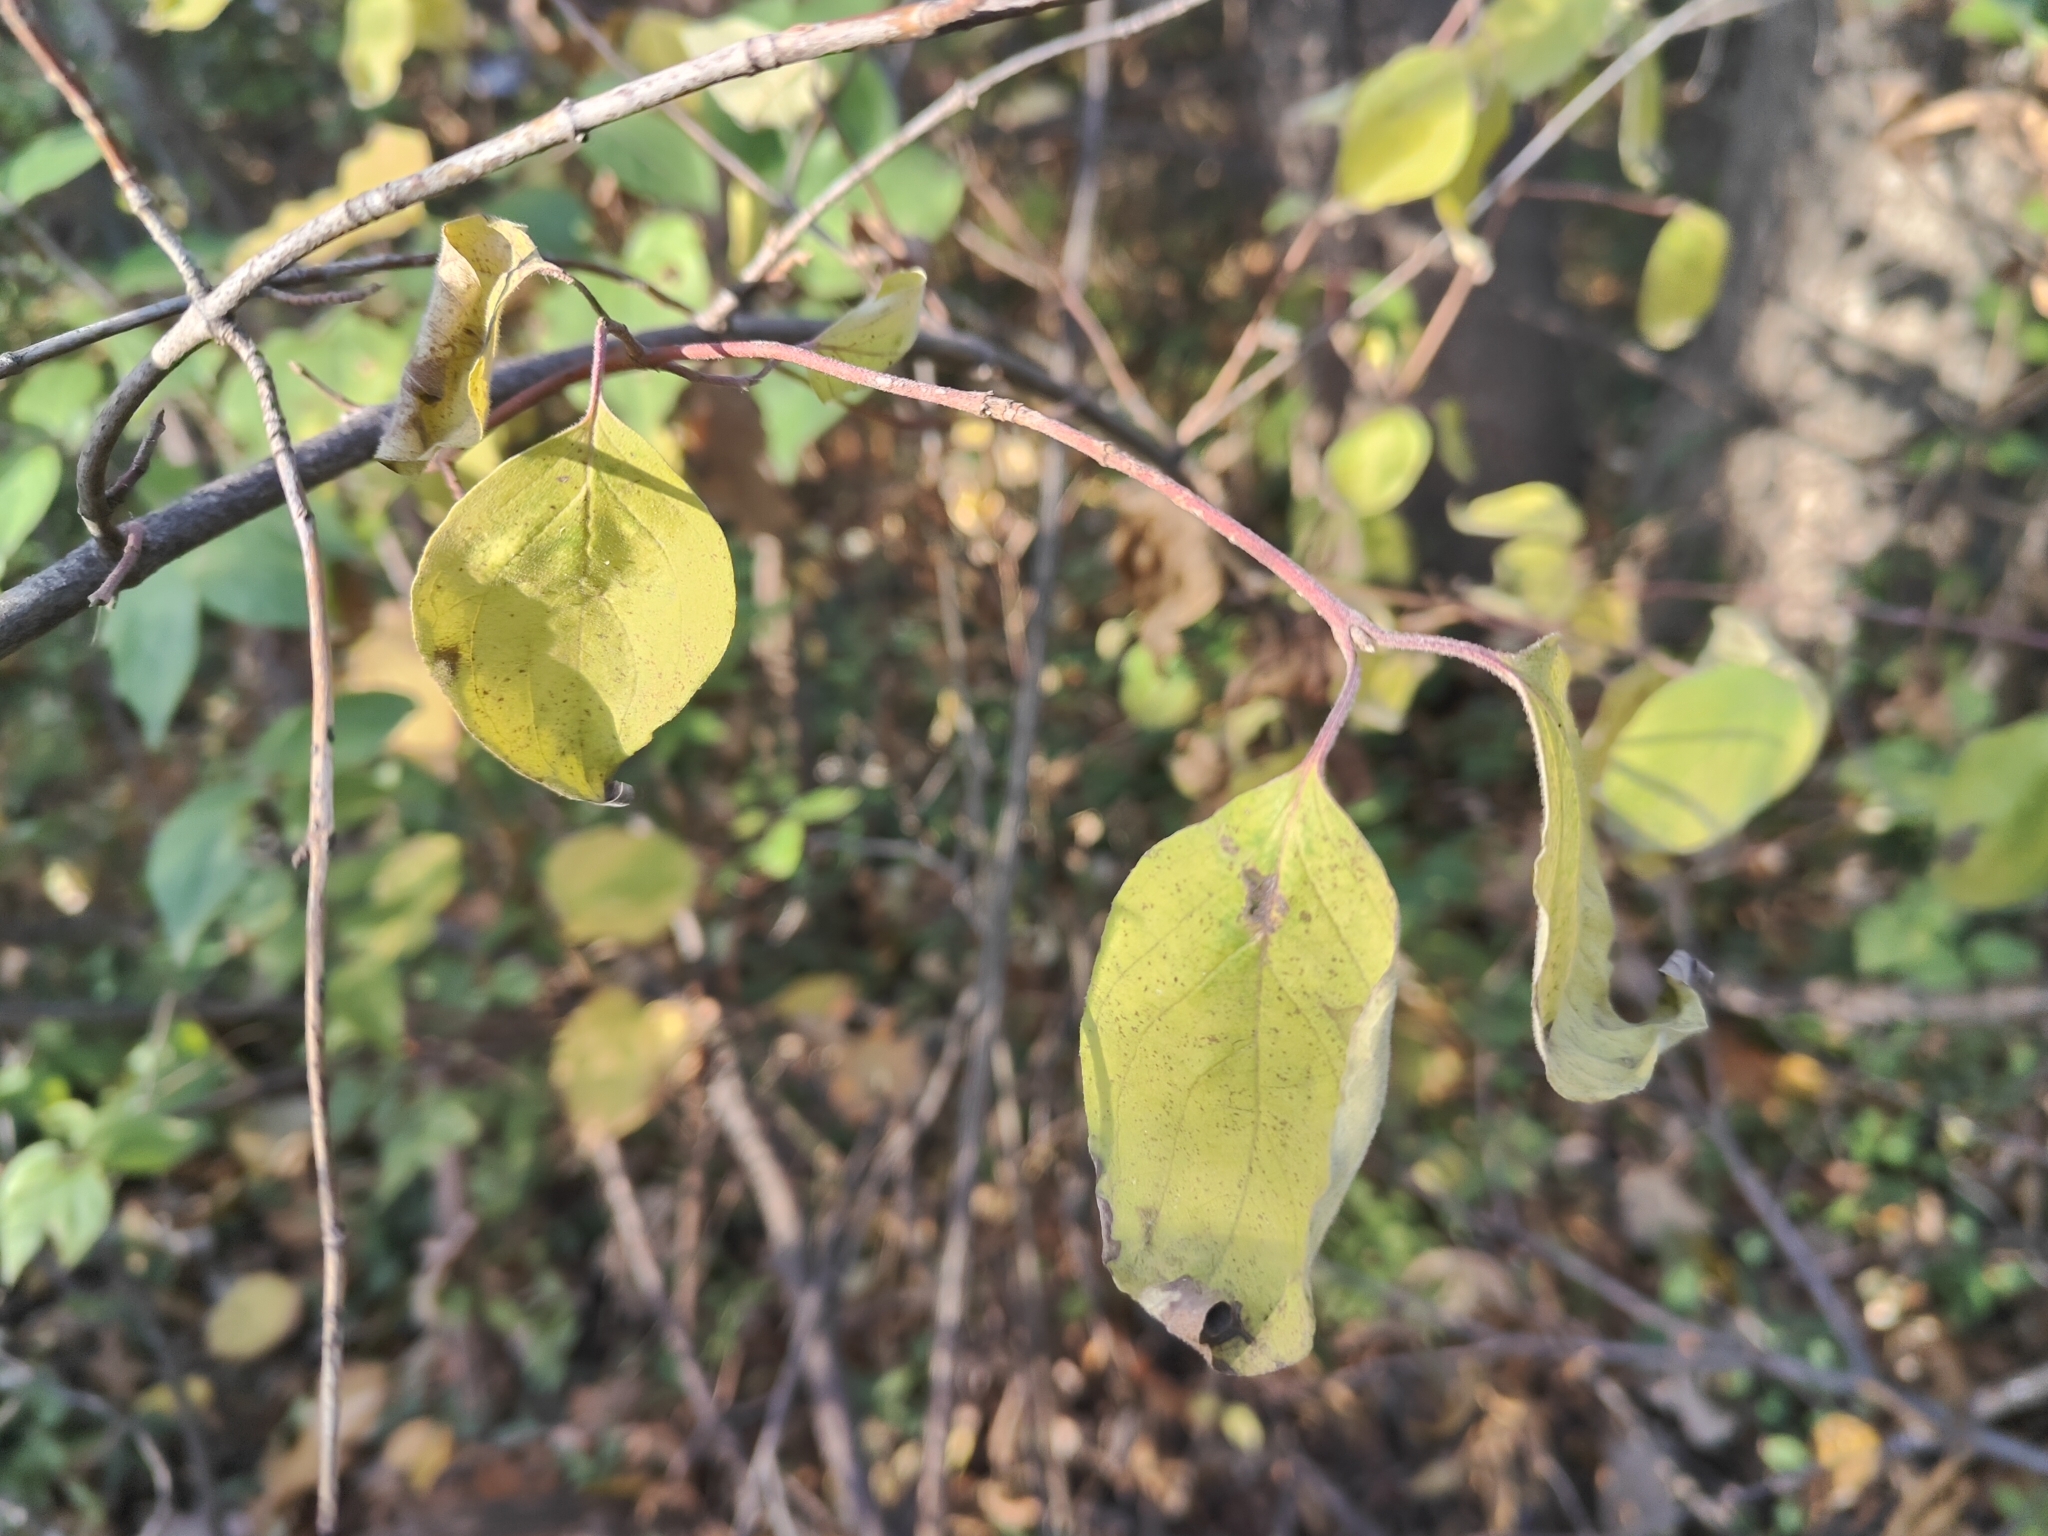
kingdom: Plantae
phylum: Tracheophyta
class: Magnoliopsida
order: Cornales
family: Cornaceae
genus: Cornus
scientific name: Cornus drummondii
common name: Rough-leaf dogwood
